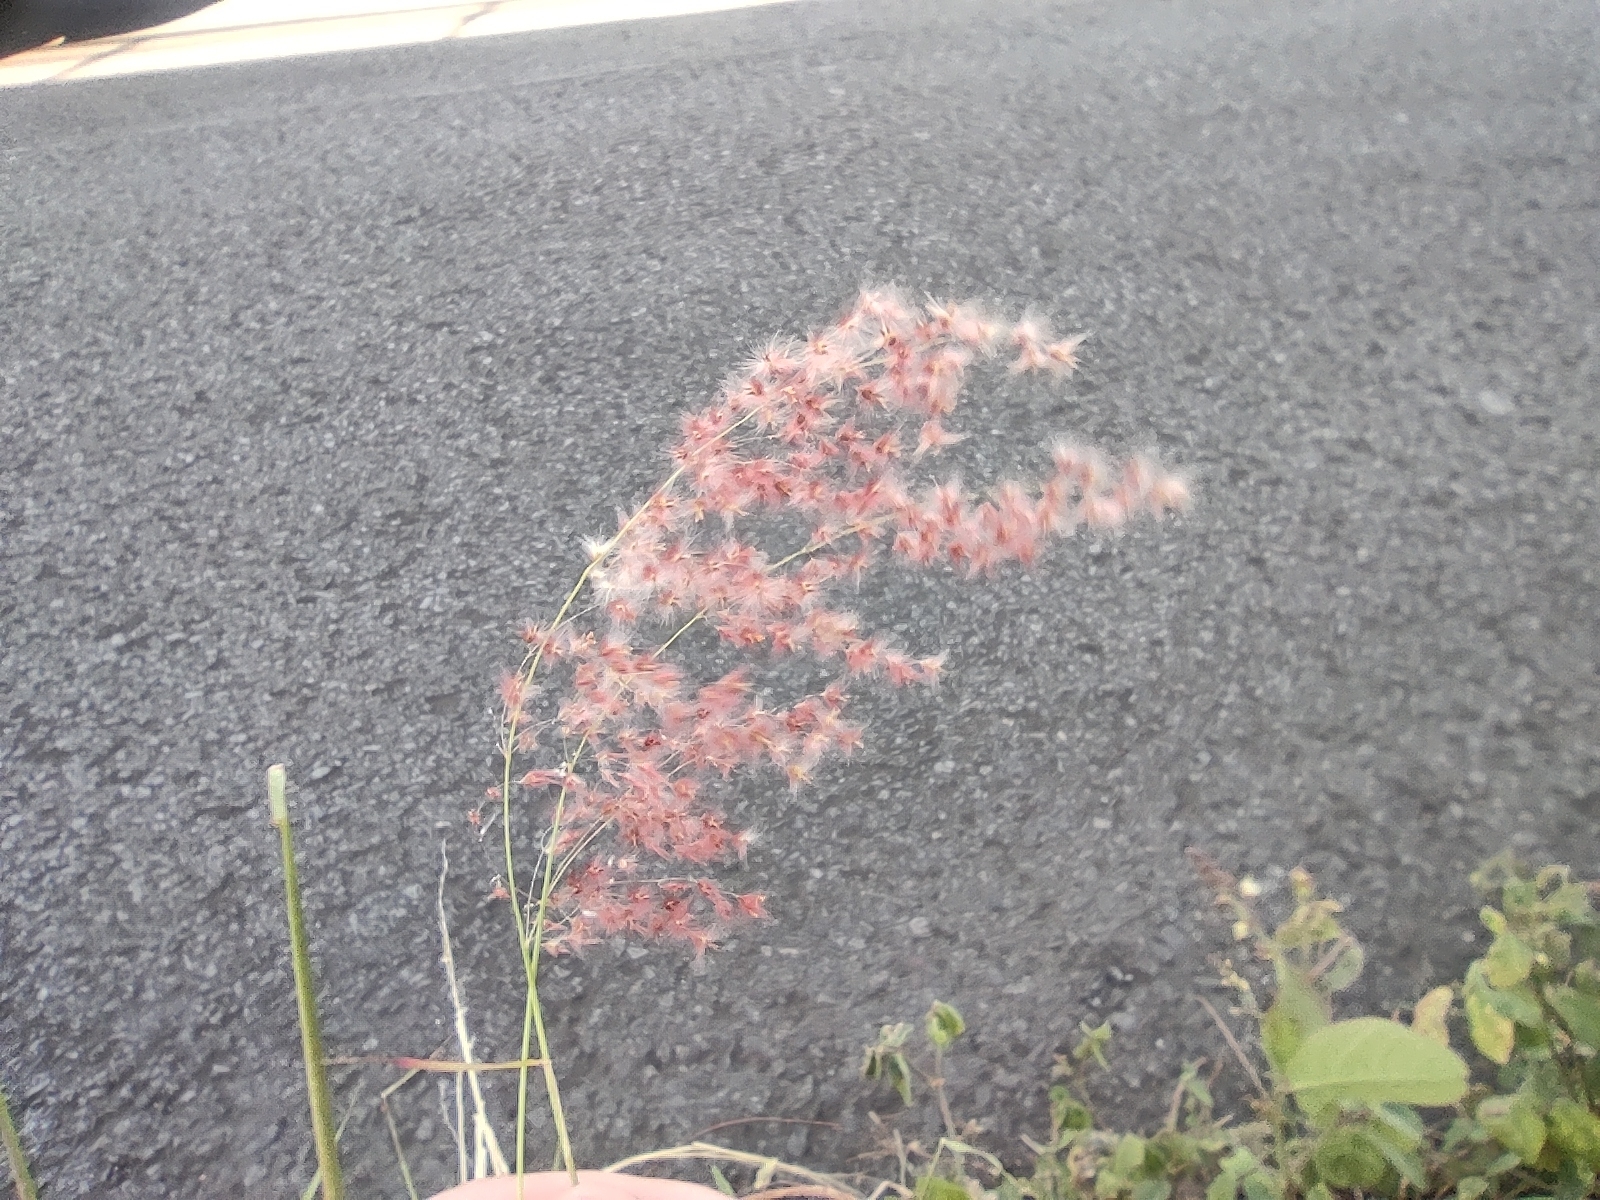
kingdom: Plantae
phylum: Tracheophyta
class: Liliopsida
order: Poales
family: Poaceae
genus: Melinis
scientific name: Melinis repens
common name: Rose natal grass
